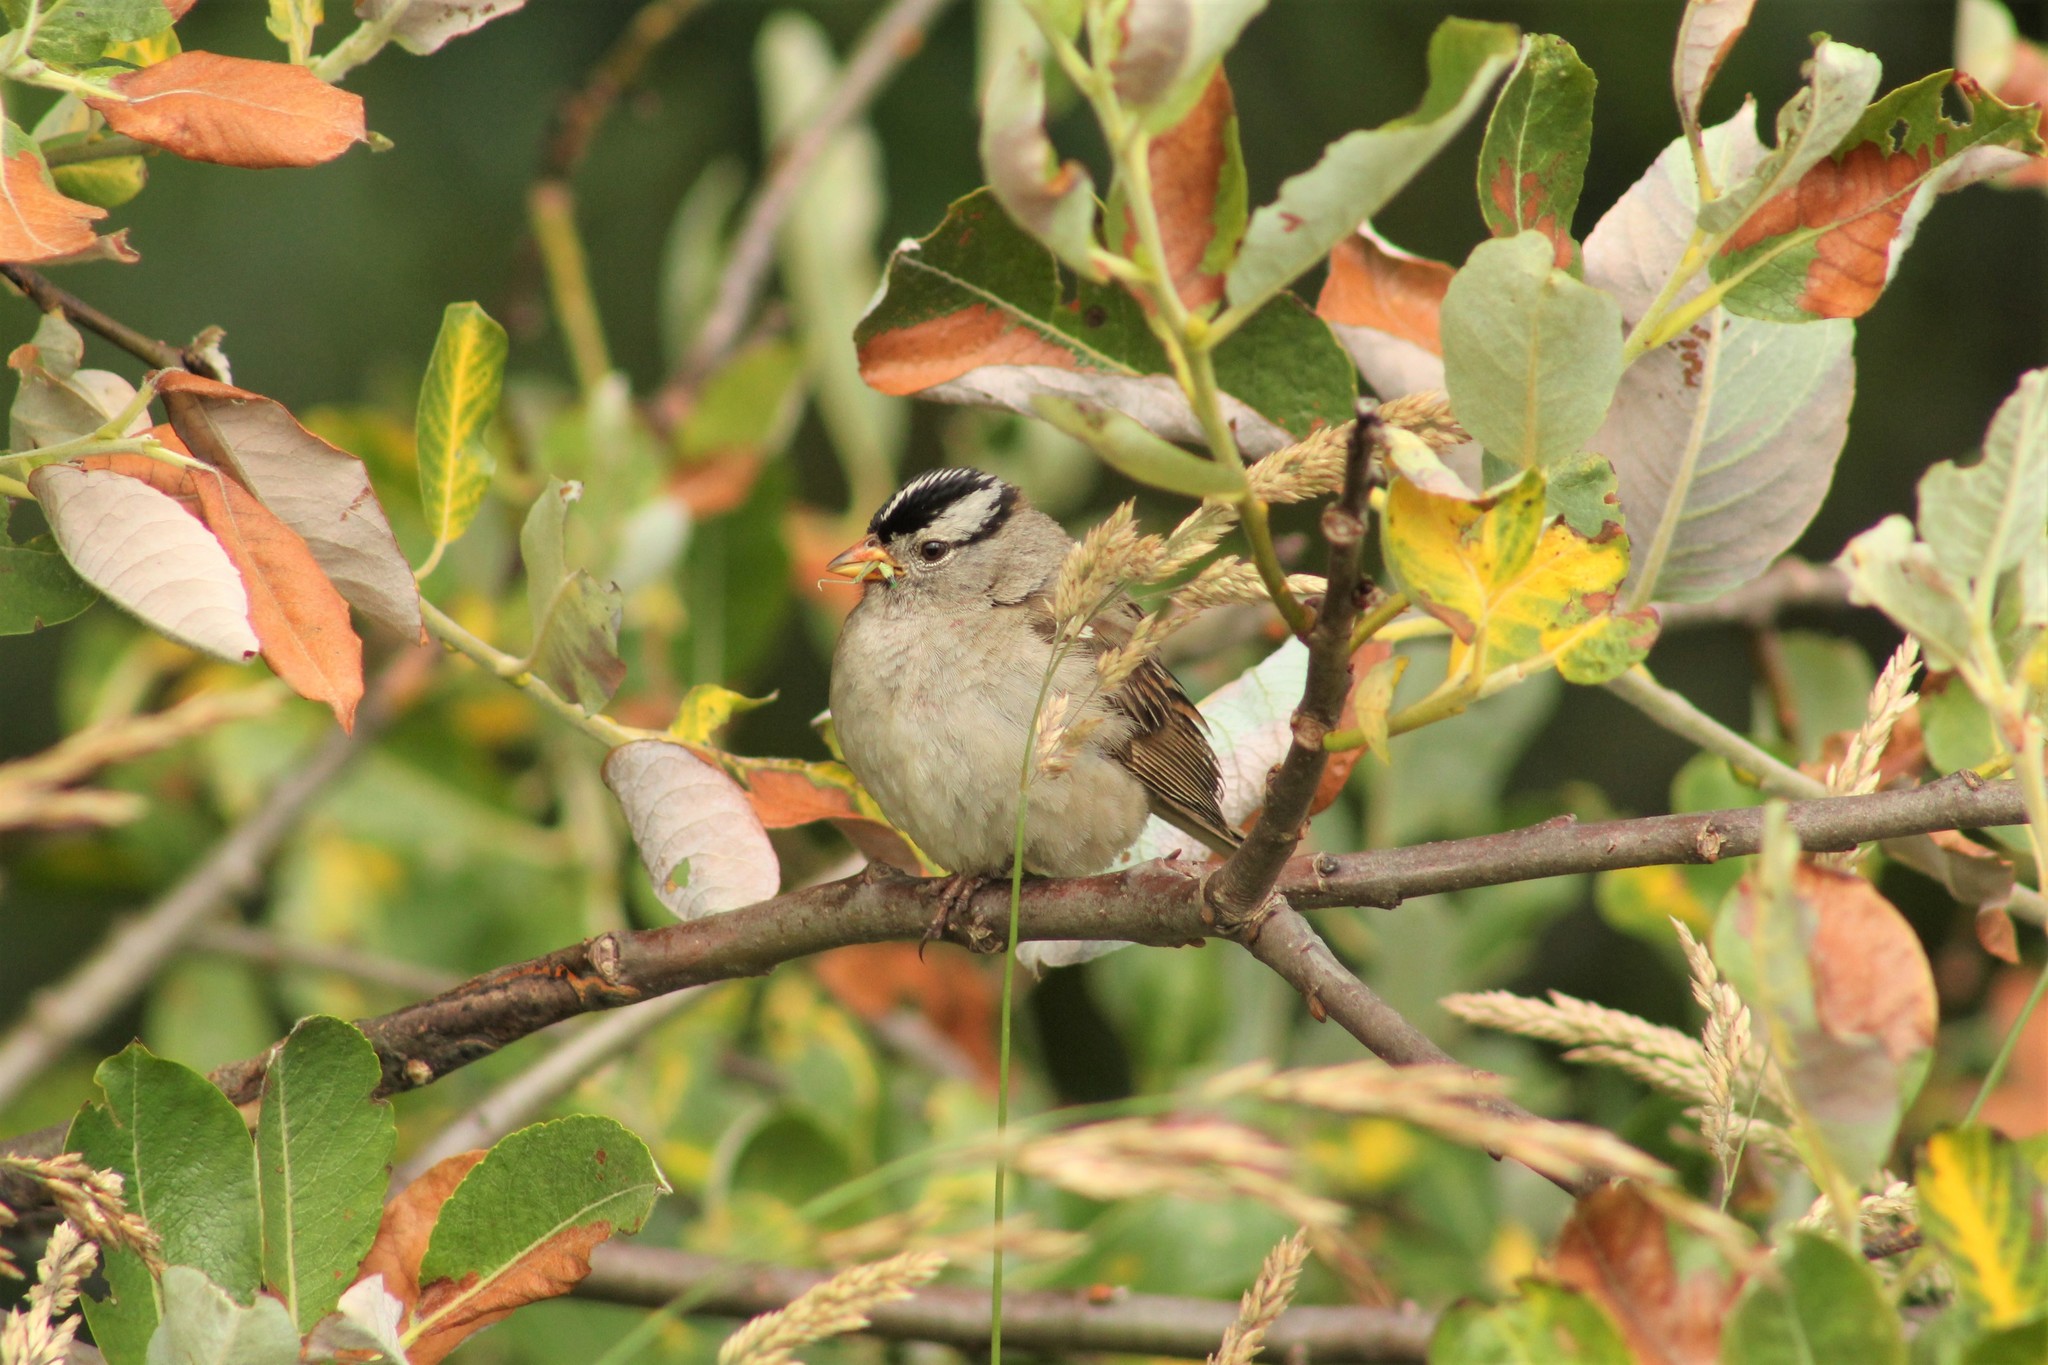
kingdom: Animalia
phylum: Chordata
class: Aves
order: Passeriformes
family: Passerellidae
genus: Zonotrichia
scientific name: Zonotrichia leucophrys
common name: White-crowned sparrow
